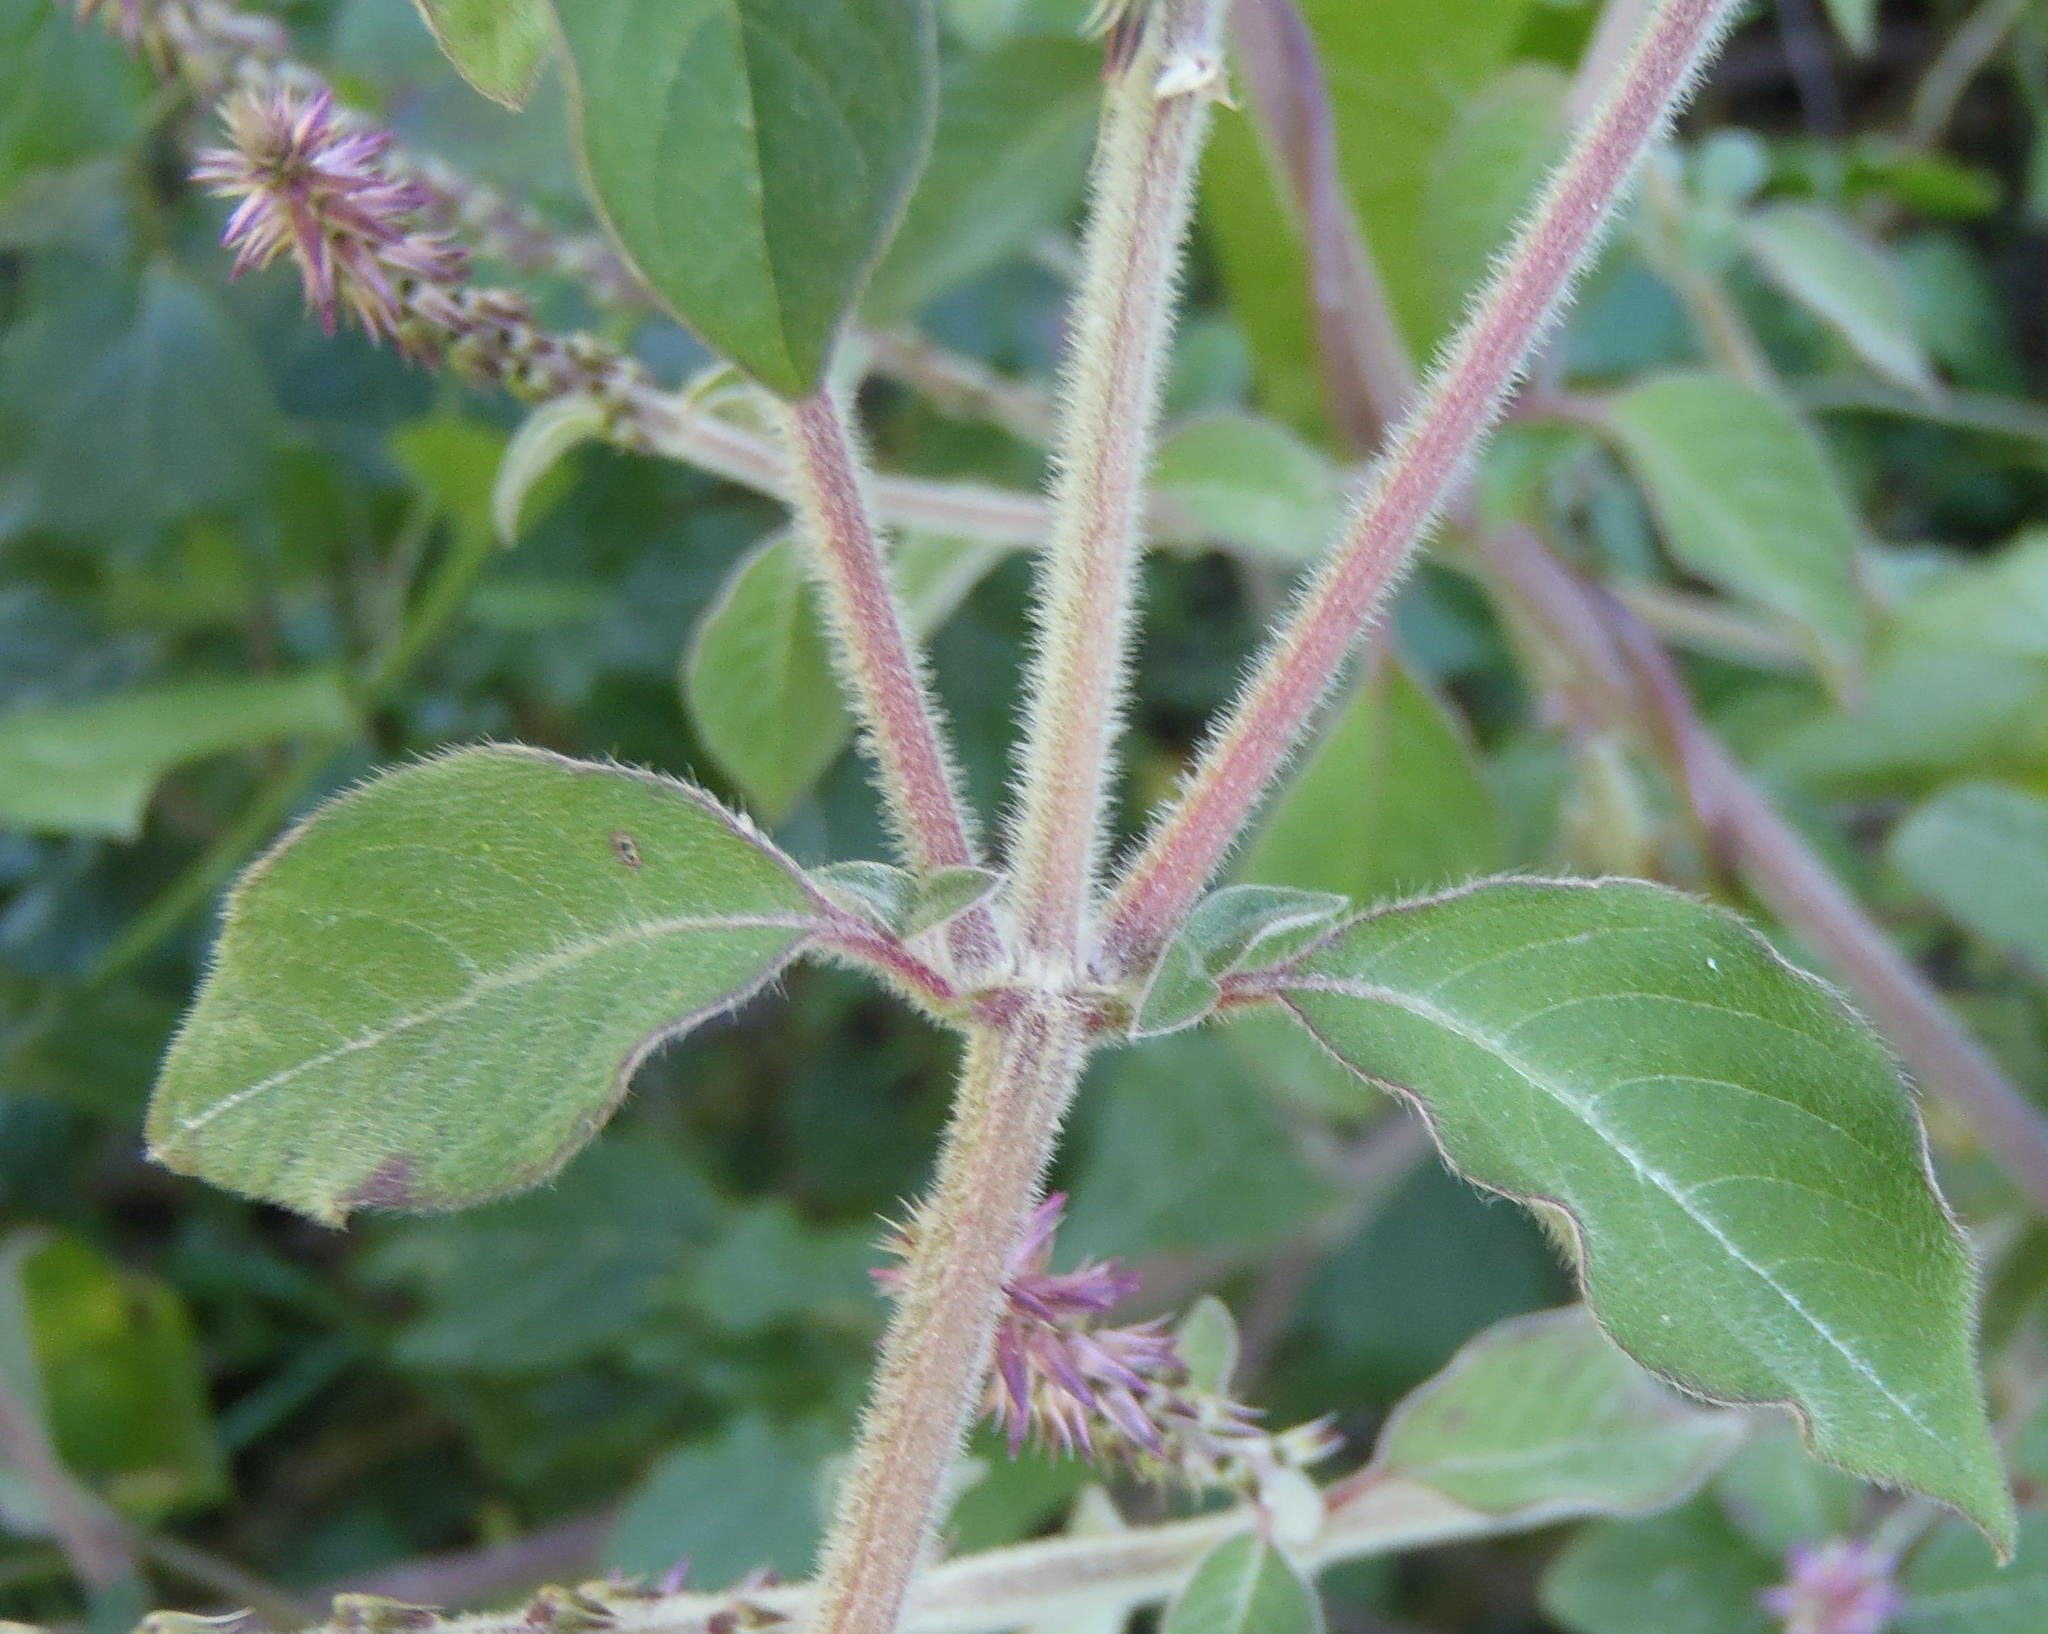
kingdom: Plantae
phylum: Tracheophyta
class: Magnoliopsida
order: Caryophyllales
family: Amaranthaceae
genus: Achyranthes
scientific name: Achyranthes aspera
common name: Devil's horsewhip
